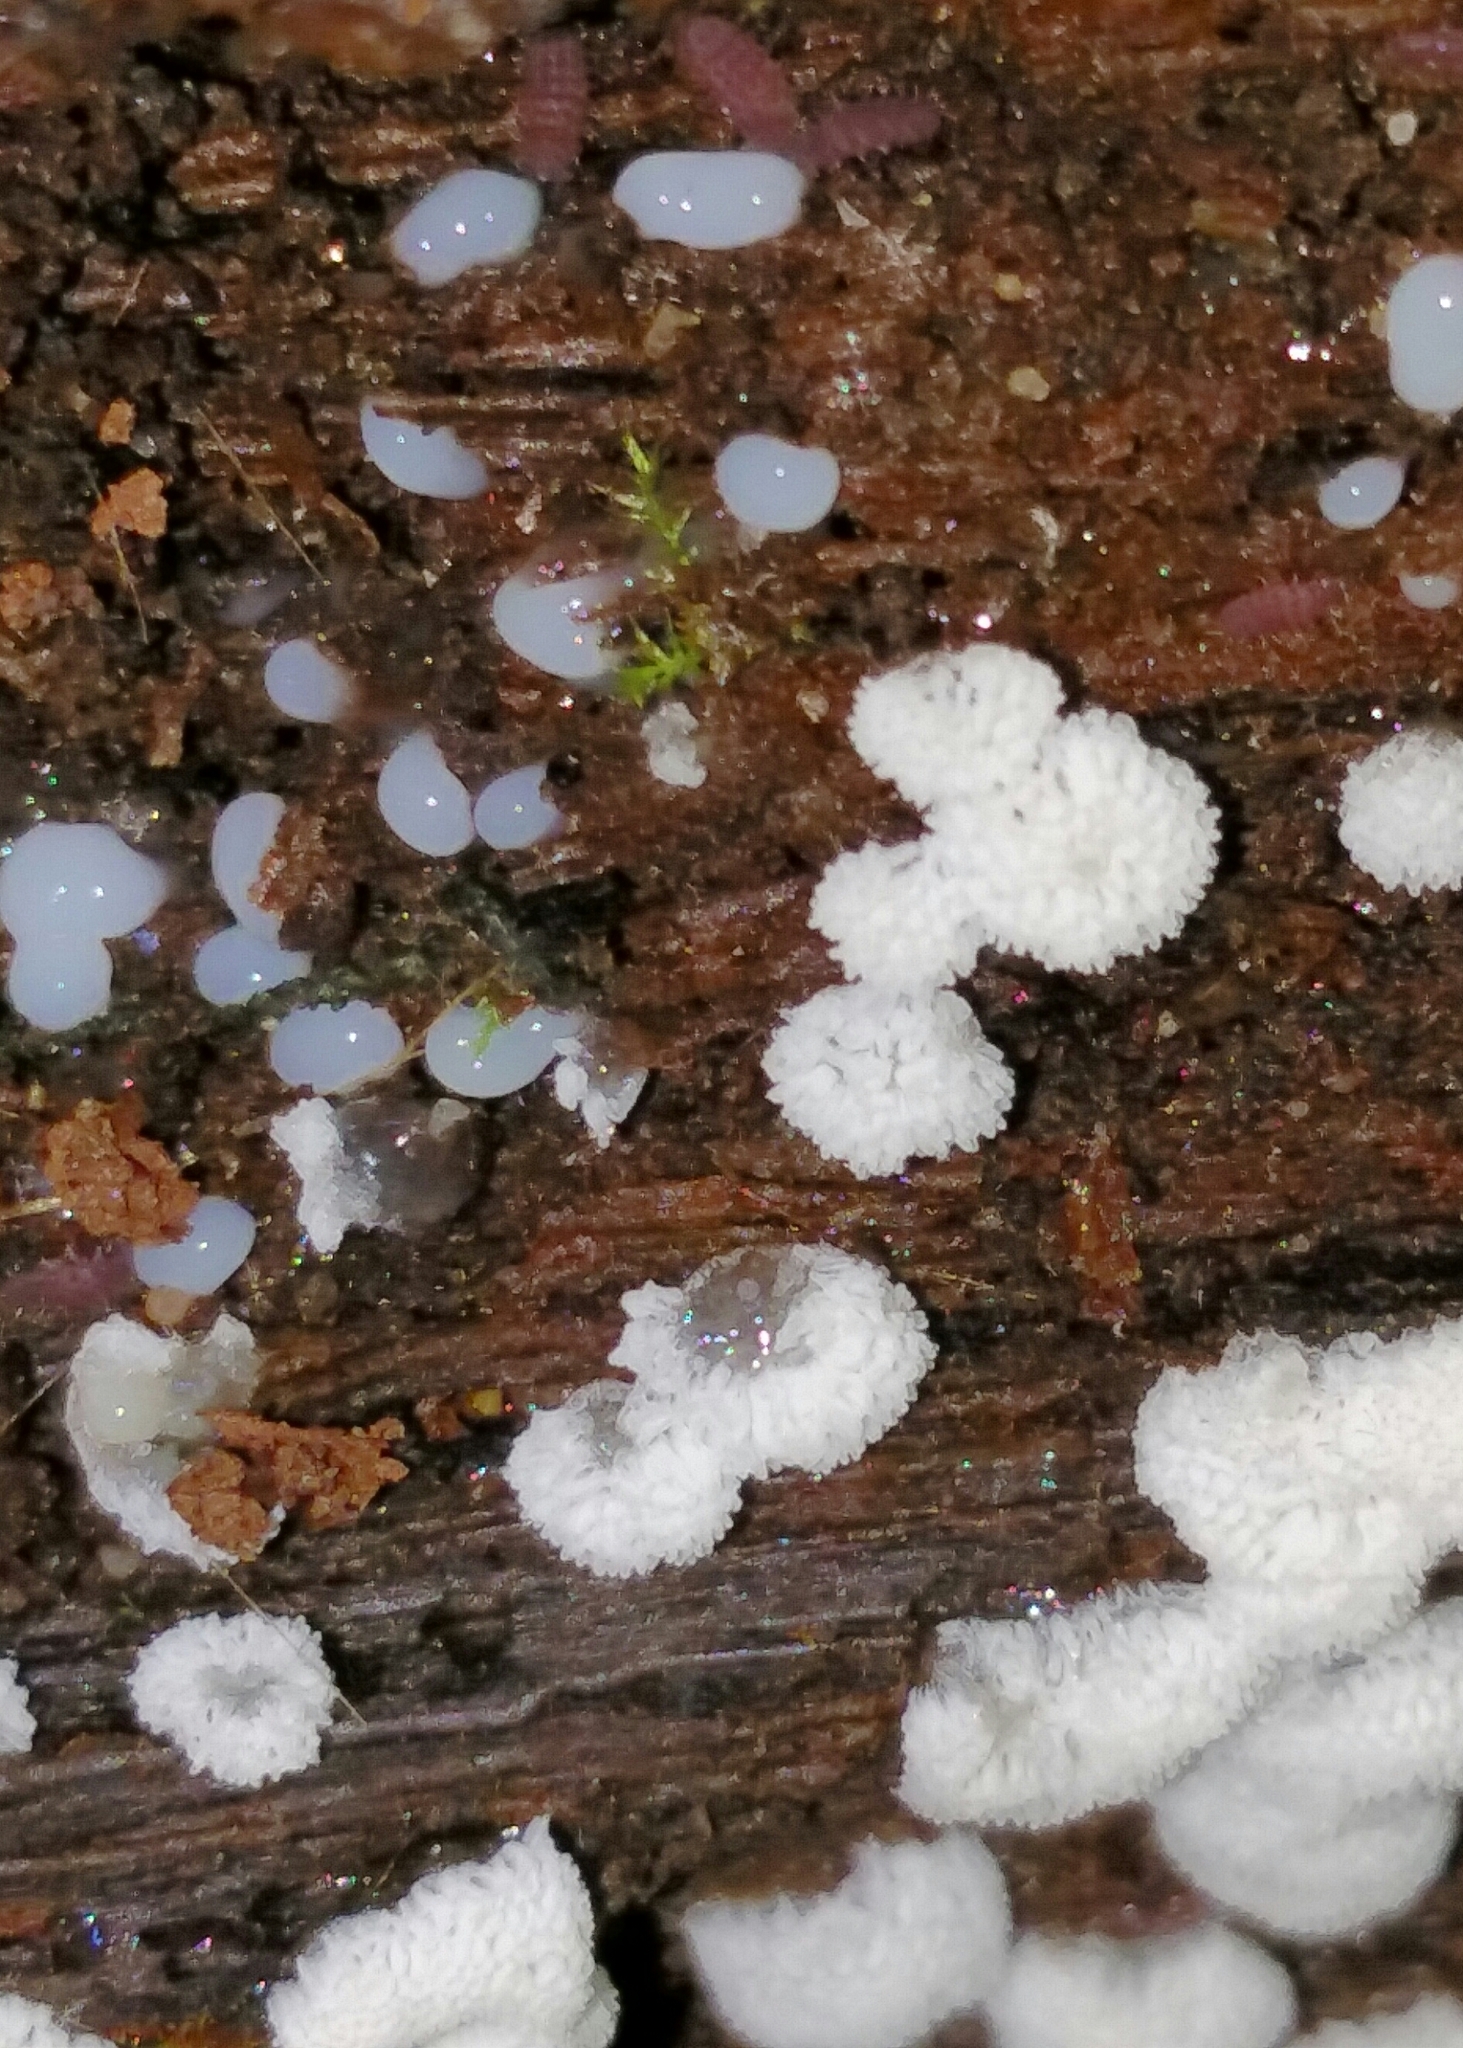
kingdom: Protozoa
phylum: Mycetozoa
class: Protosteliomycetes
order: Ceratiomyxales
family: Ceratiomyxaceae
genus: Ceratiomyxa
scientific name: Ceratiomyxa fruticulosa
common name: Honeycomb coral slime mold
